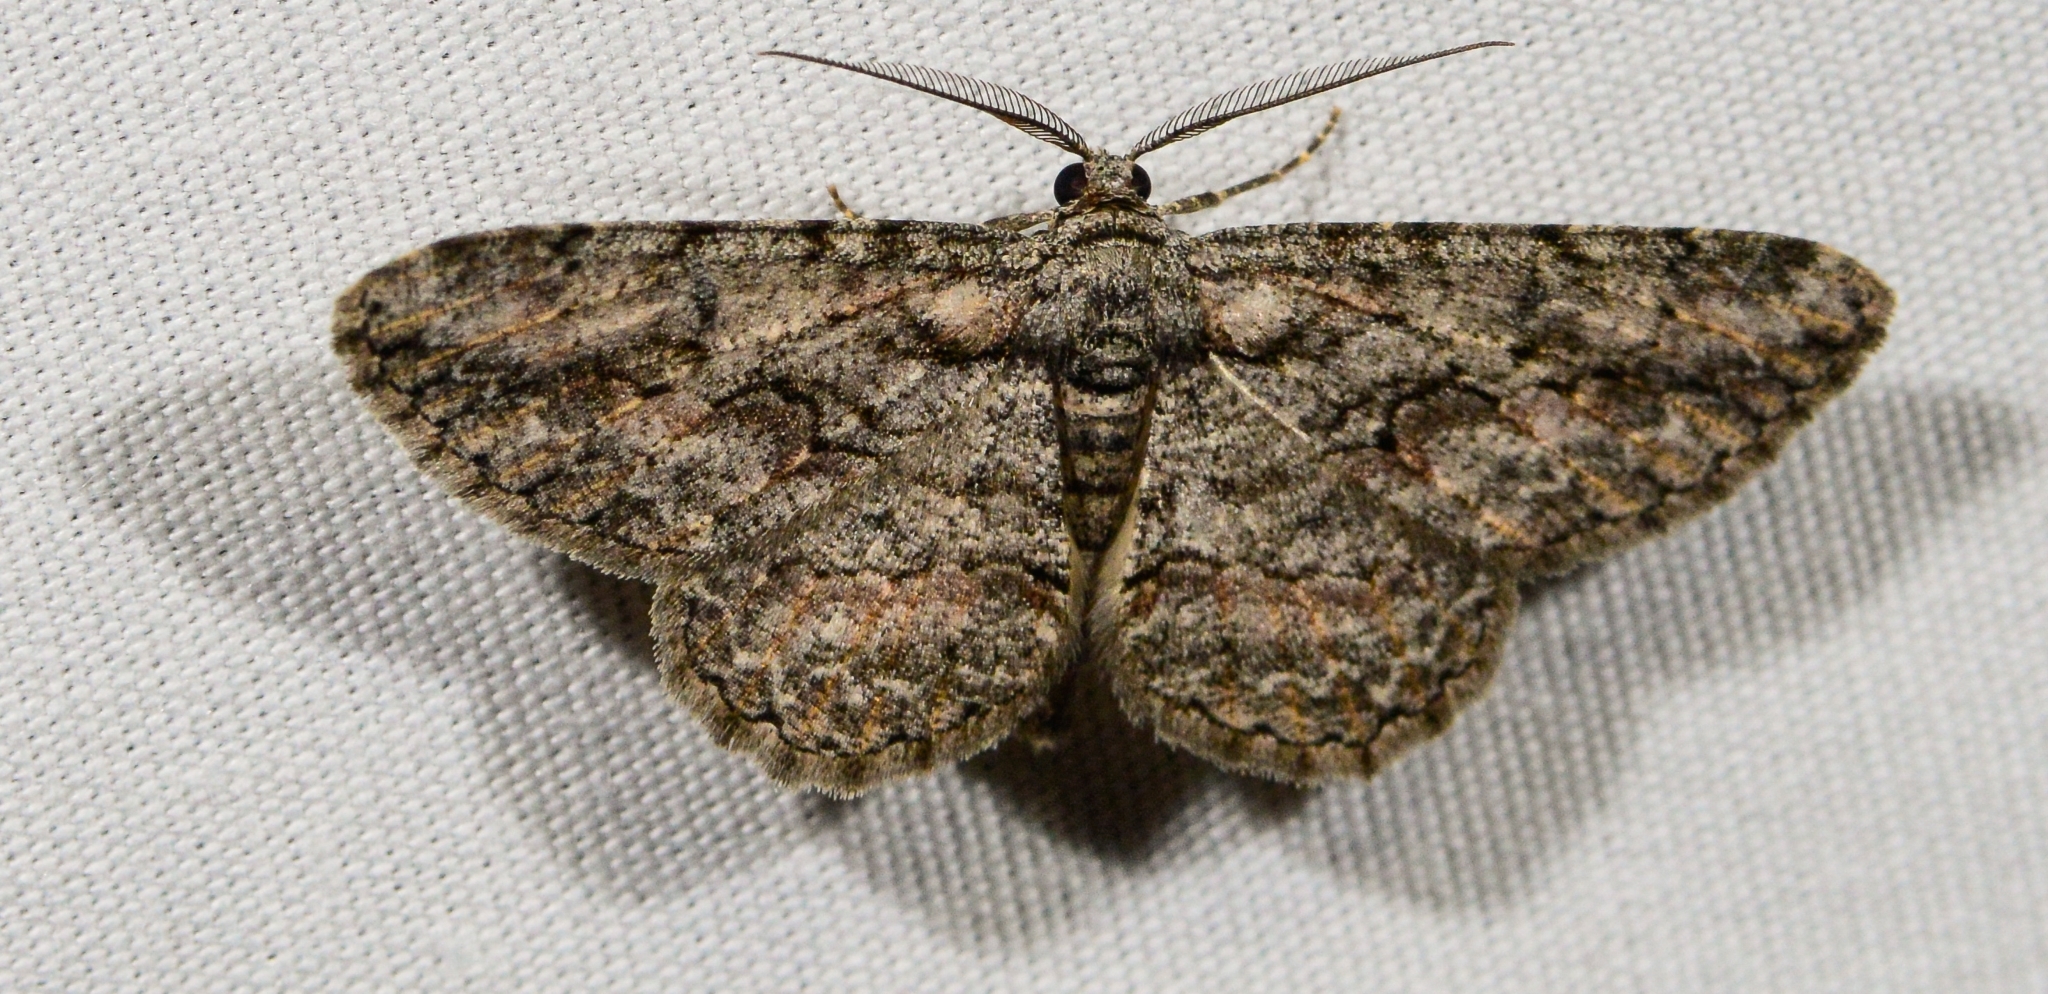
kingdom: Animalia
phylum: Arthropoda
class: Insecta
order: Lepidoptera
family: Geometridae
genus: Anavitrinella
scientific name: Anavitrinella pampinaria
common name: Common gray
